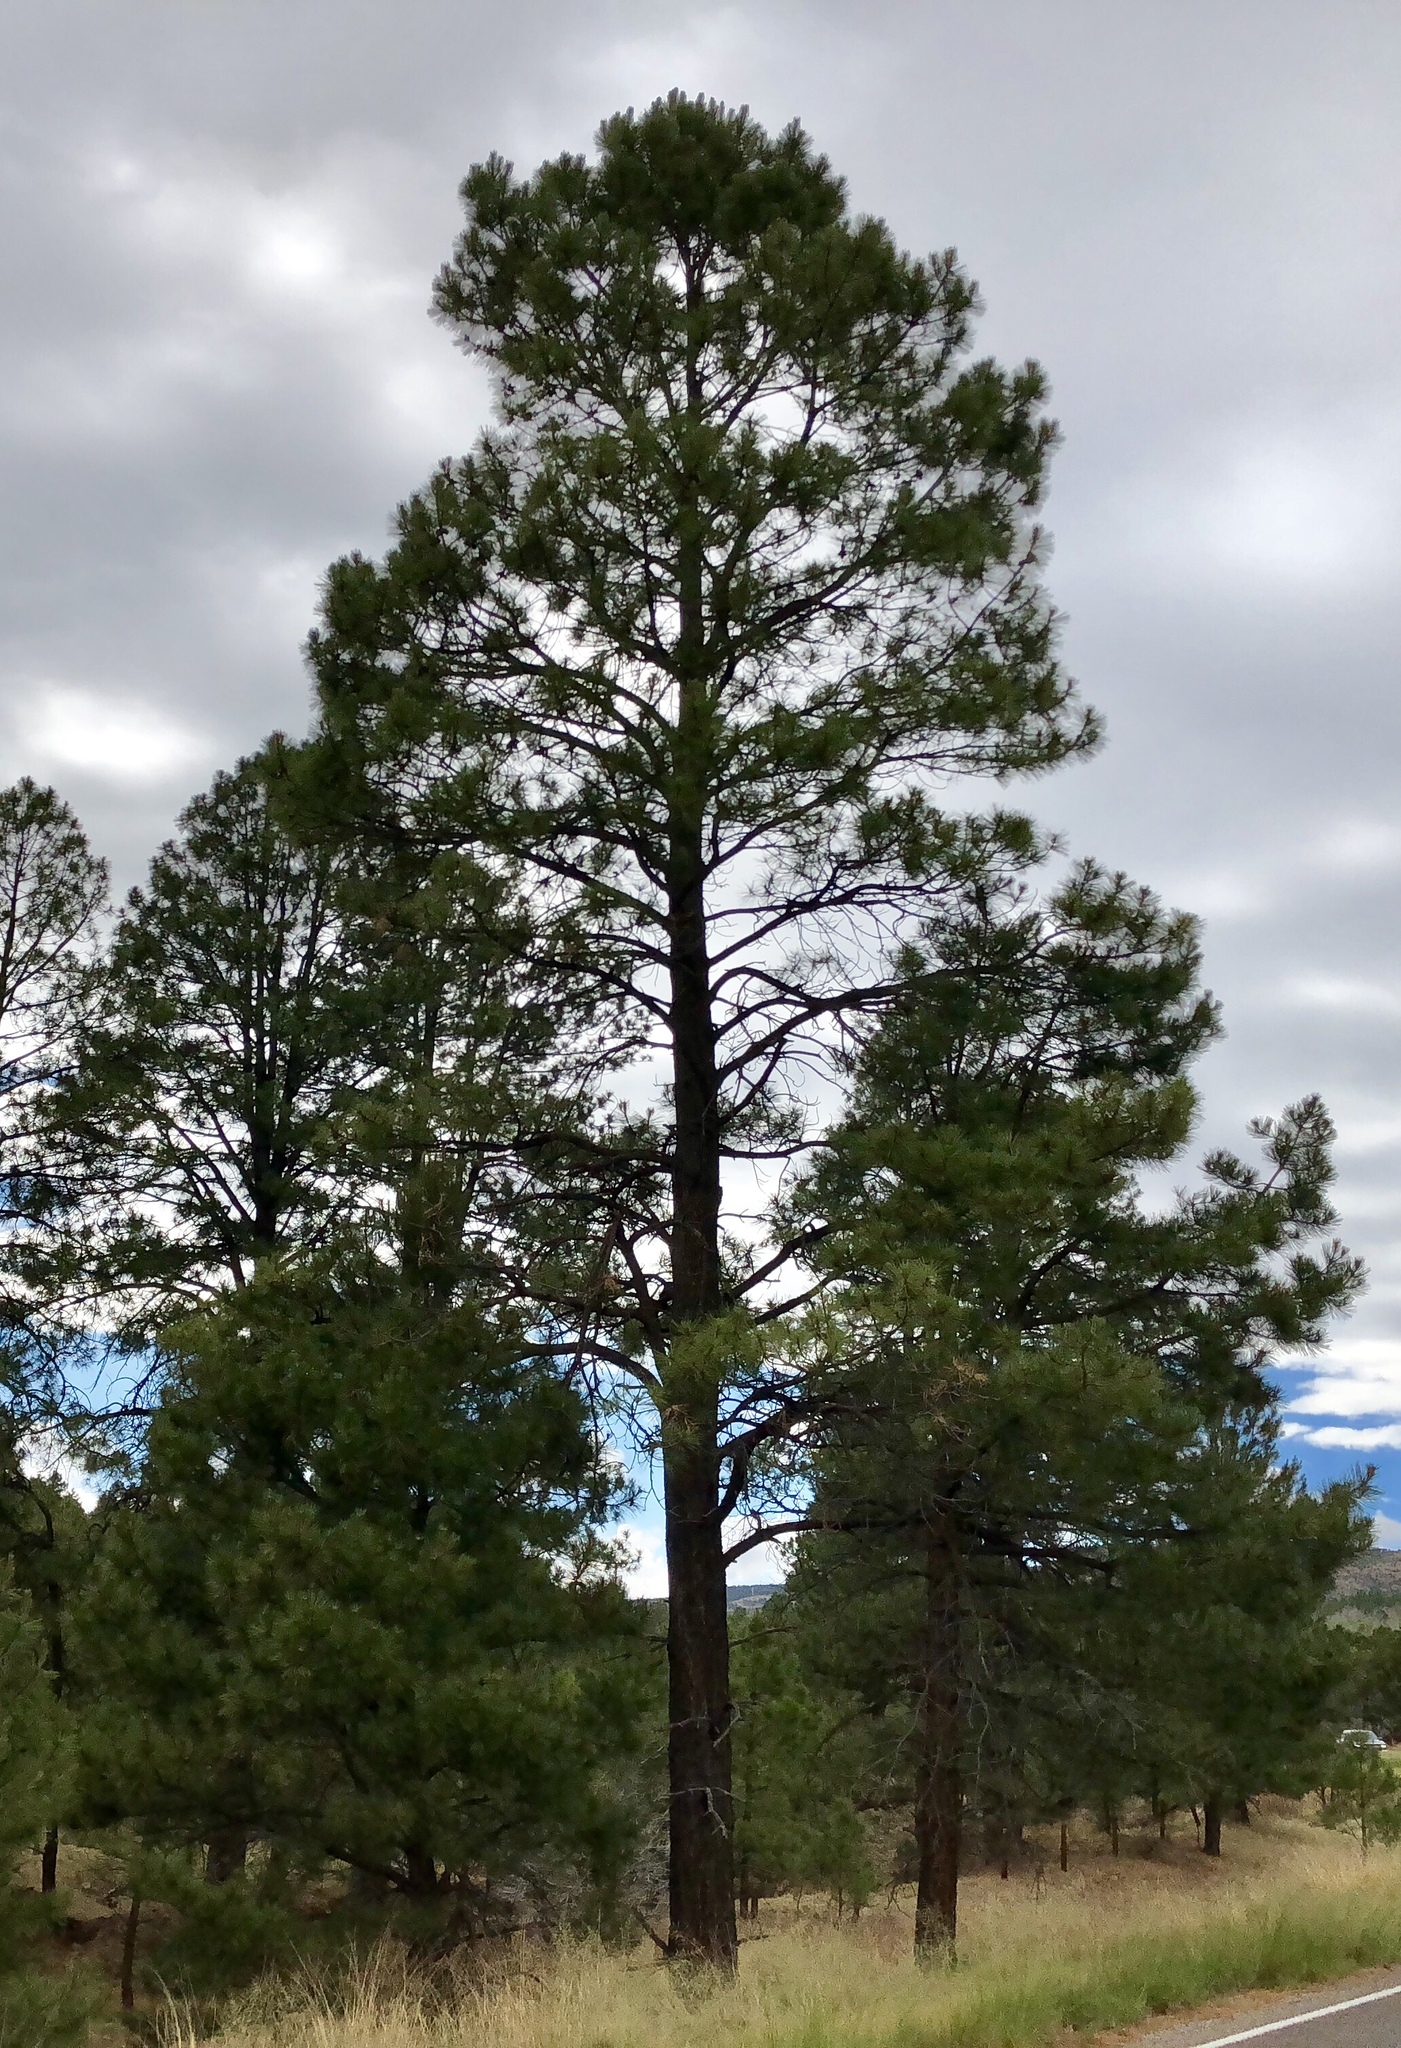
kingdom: Plantae
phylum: Tracheophyta
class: Pinopsida
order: Pinales
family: Pinaceae
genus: Pinus
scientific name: Pinus ponderosa
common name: Western yellow-pine
